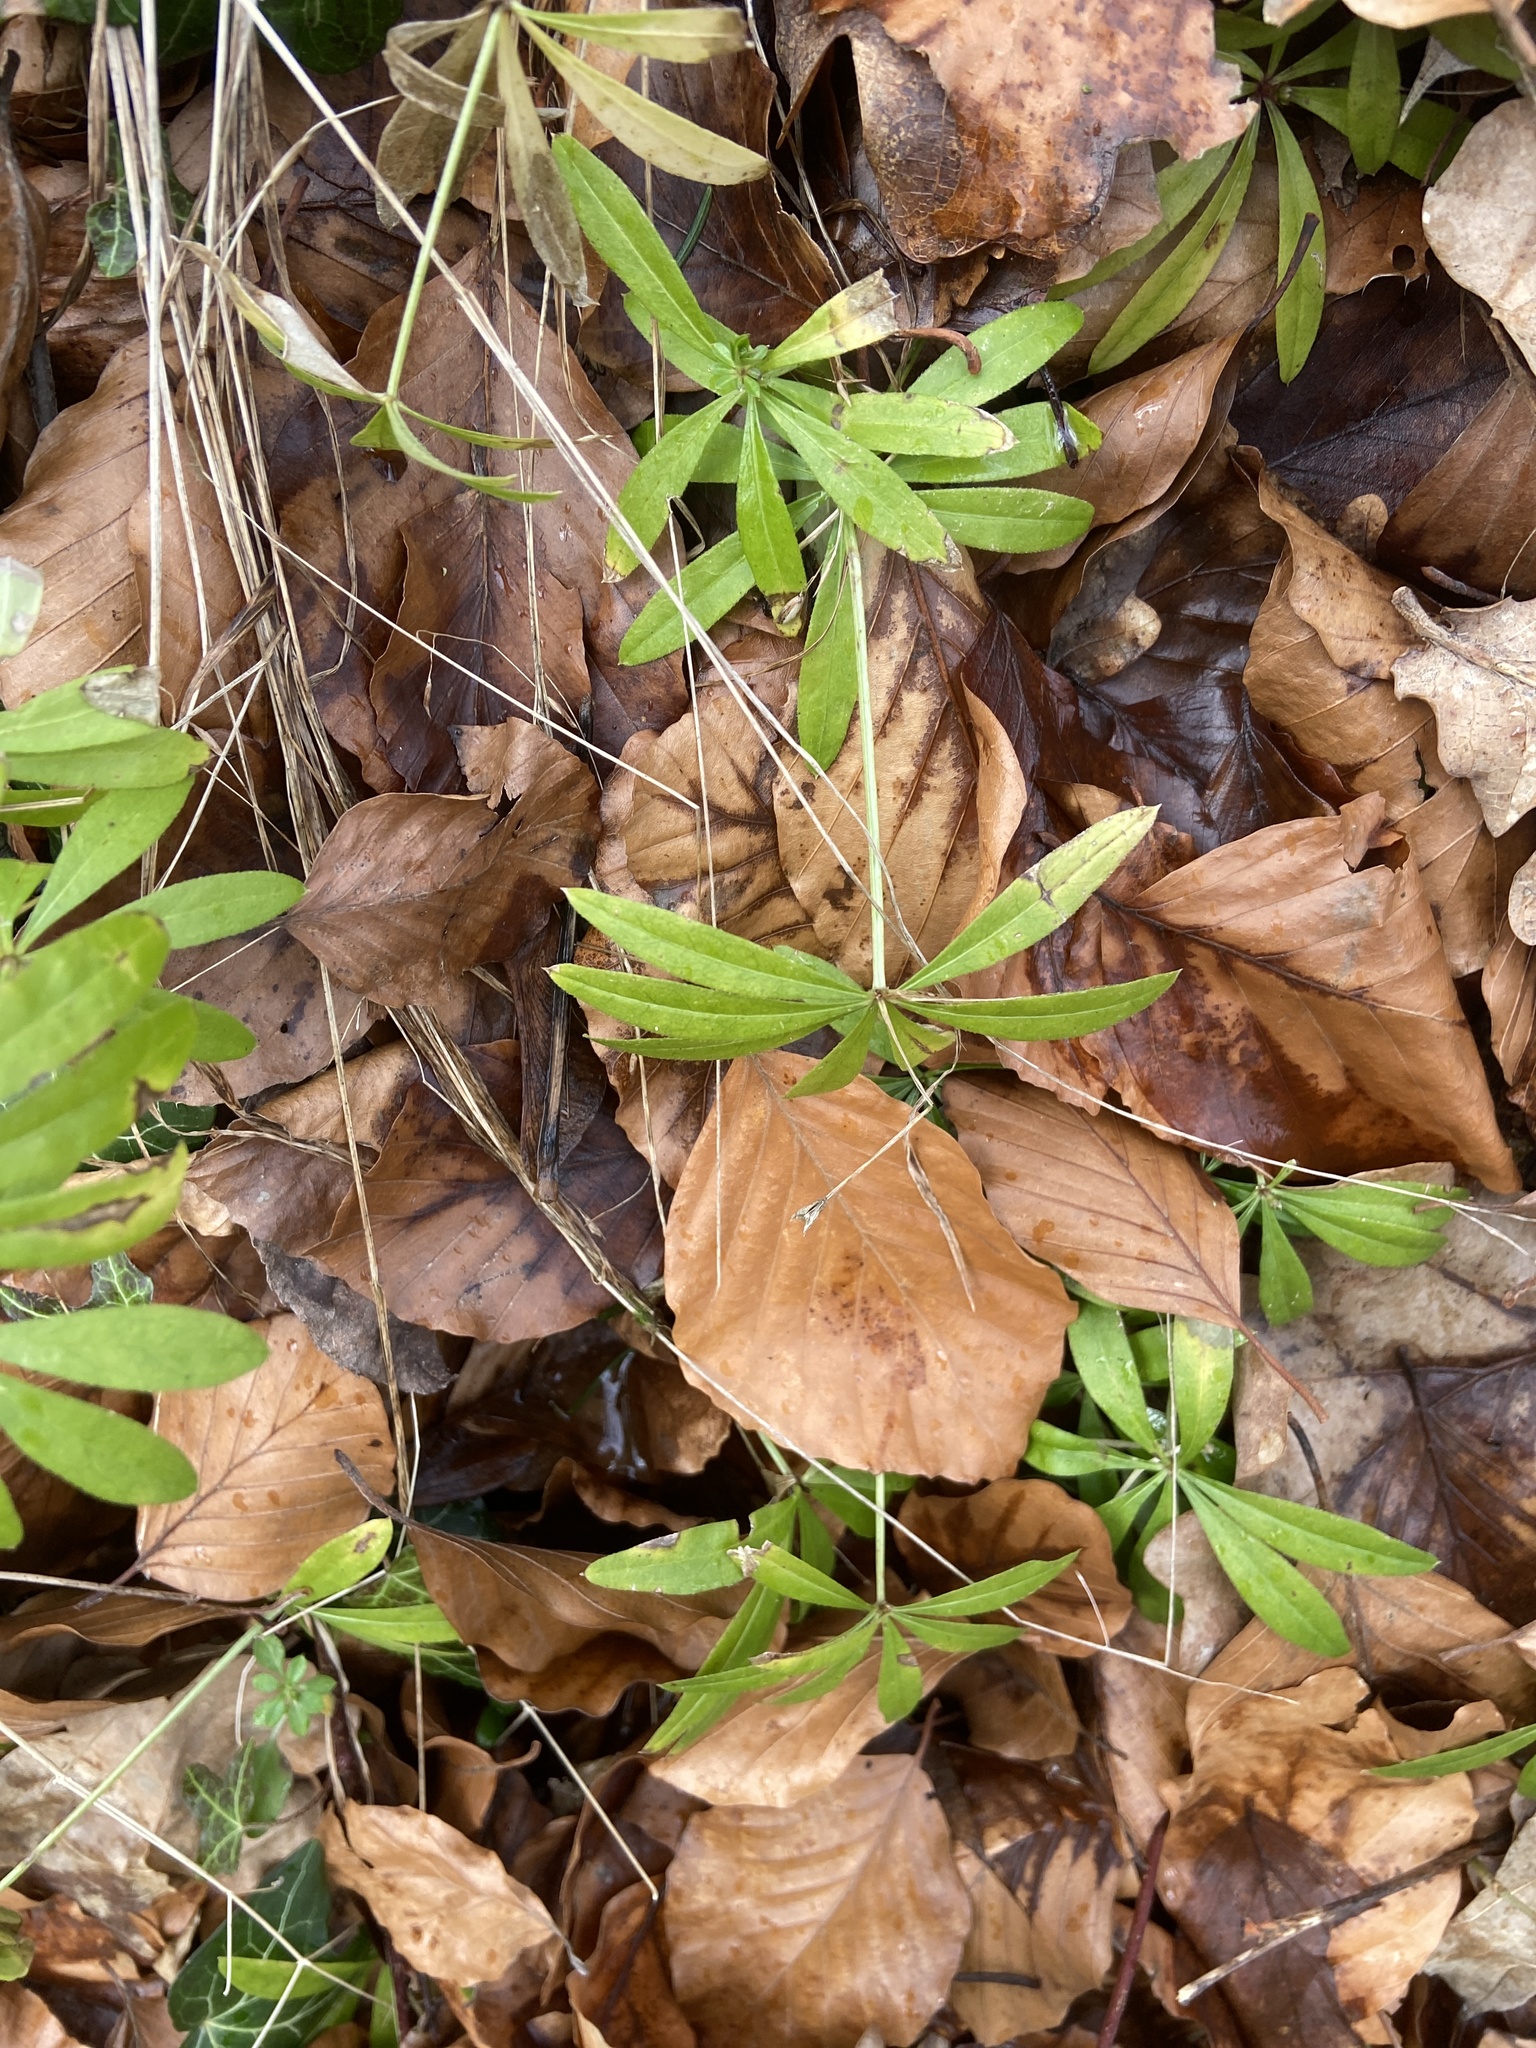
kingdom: Plantae
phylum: Tracheophyta
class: Magnoliopsida
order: Gentianales
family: Rubiaceae
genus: Galium
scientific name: Galium odoratum
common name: Sweet woodruff
